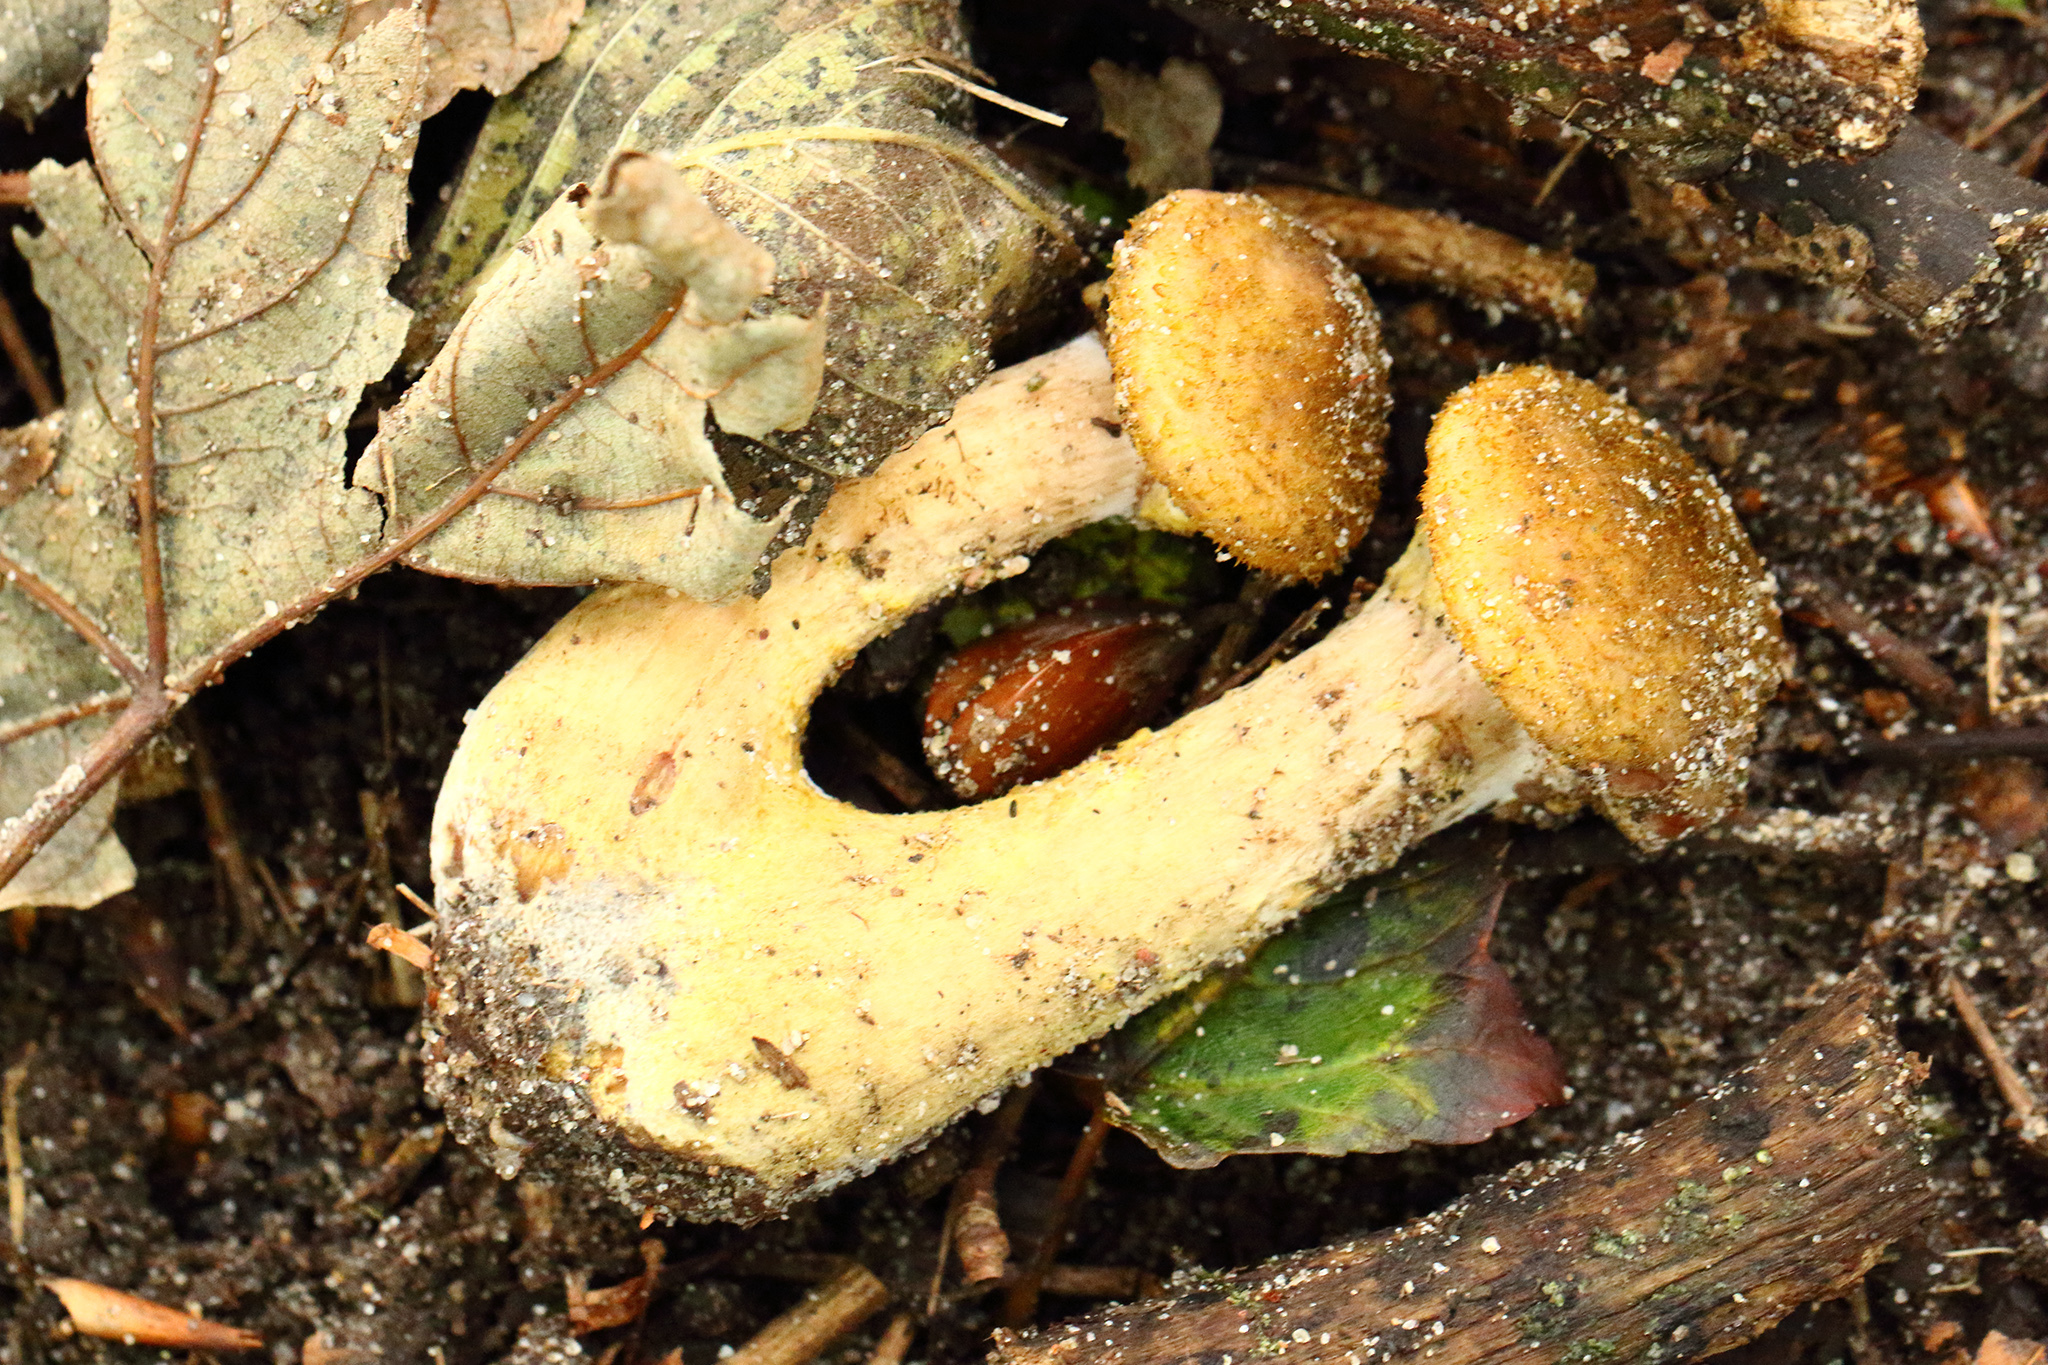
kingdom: Fungi
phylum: Basidiomycota
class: Agaricomycetes
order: Agaricales
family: Physalacriaceae
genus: Armillaria
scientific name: Armillaria mellea
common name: Honey fungus
